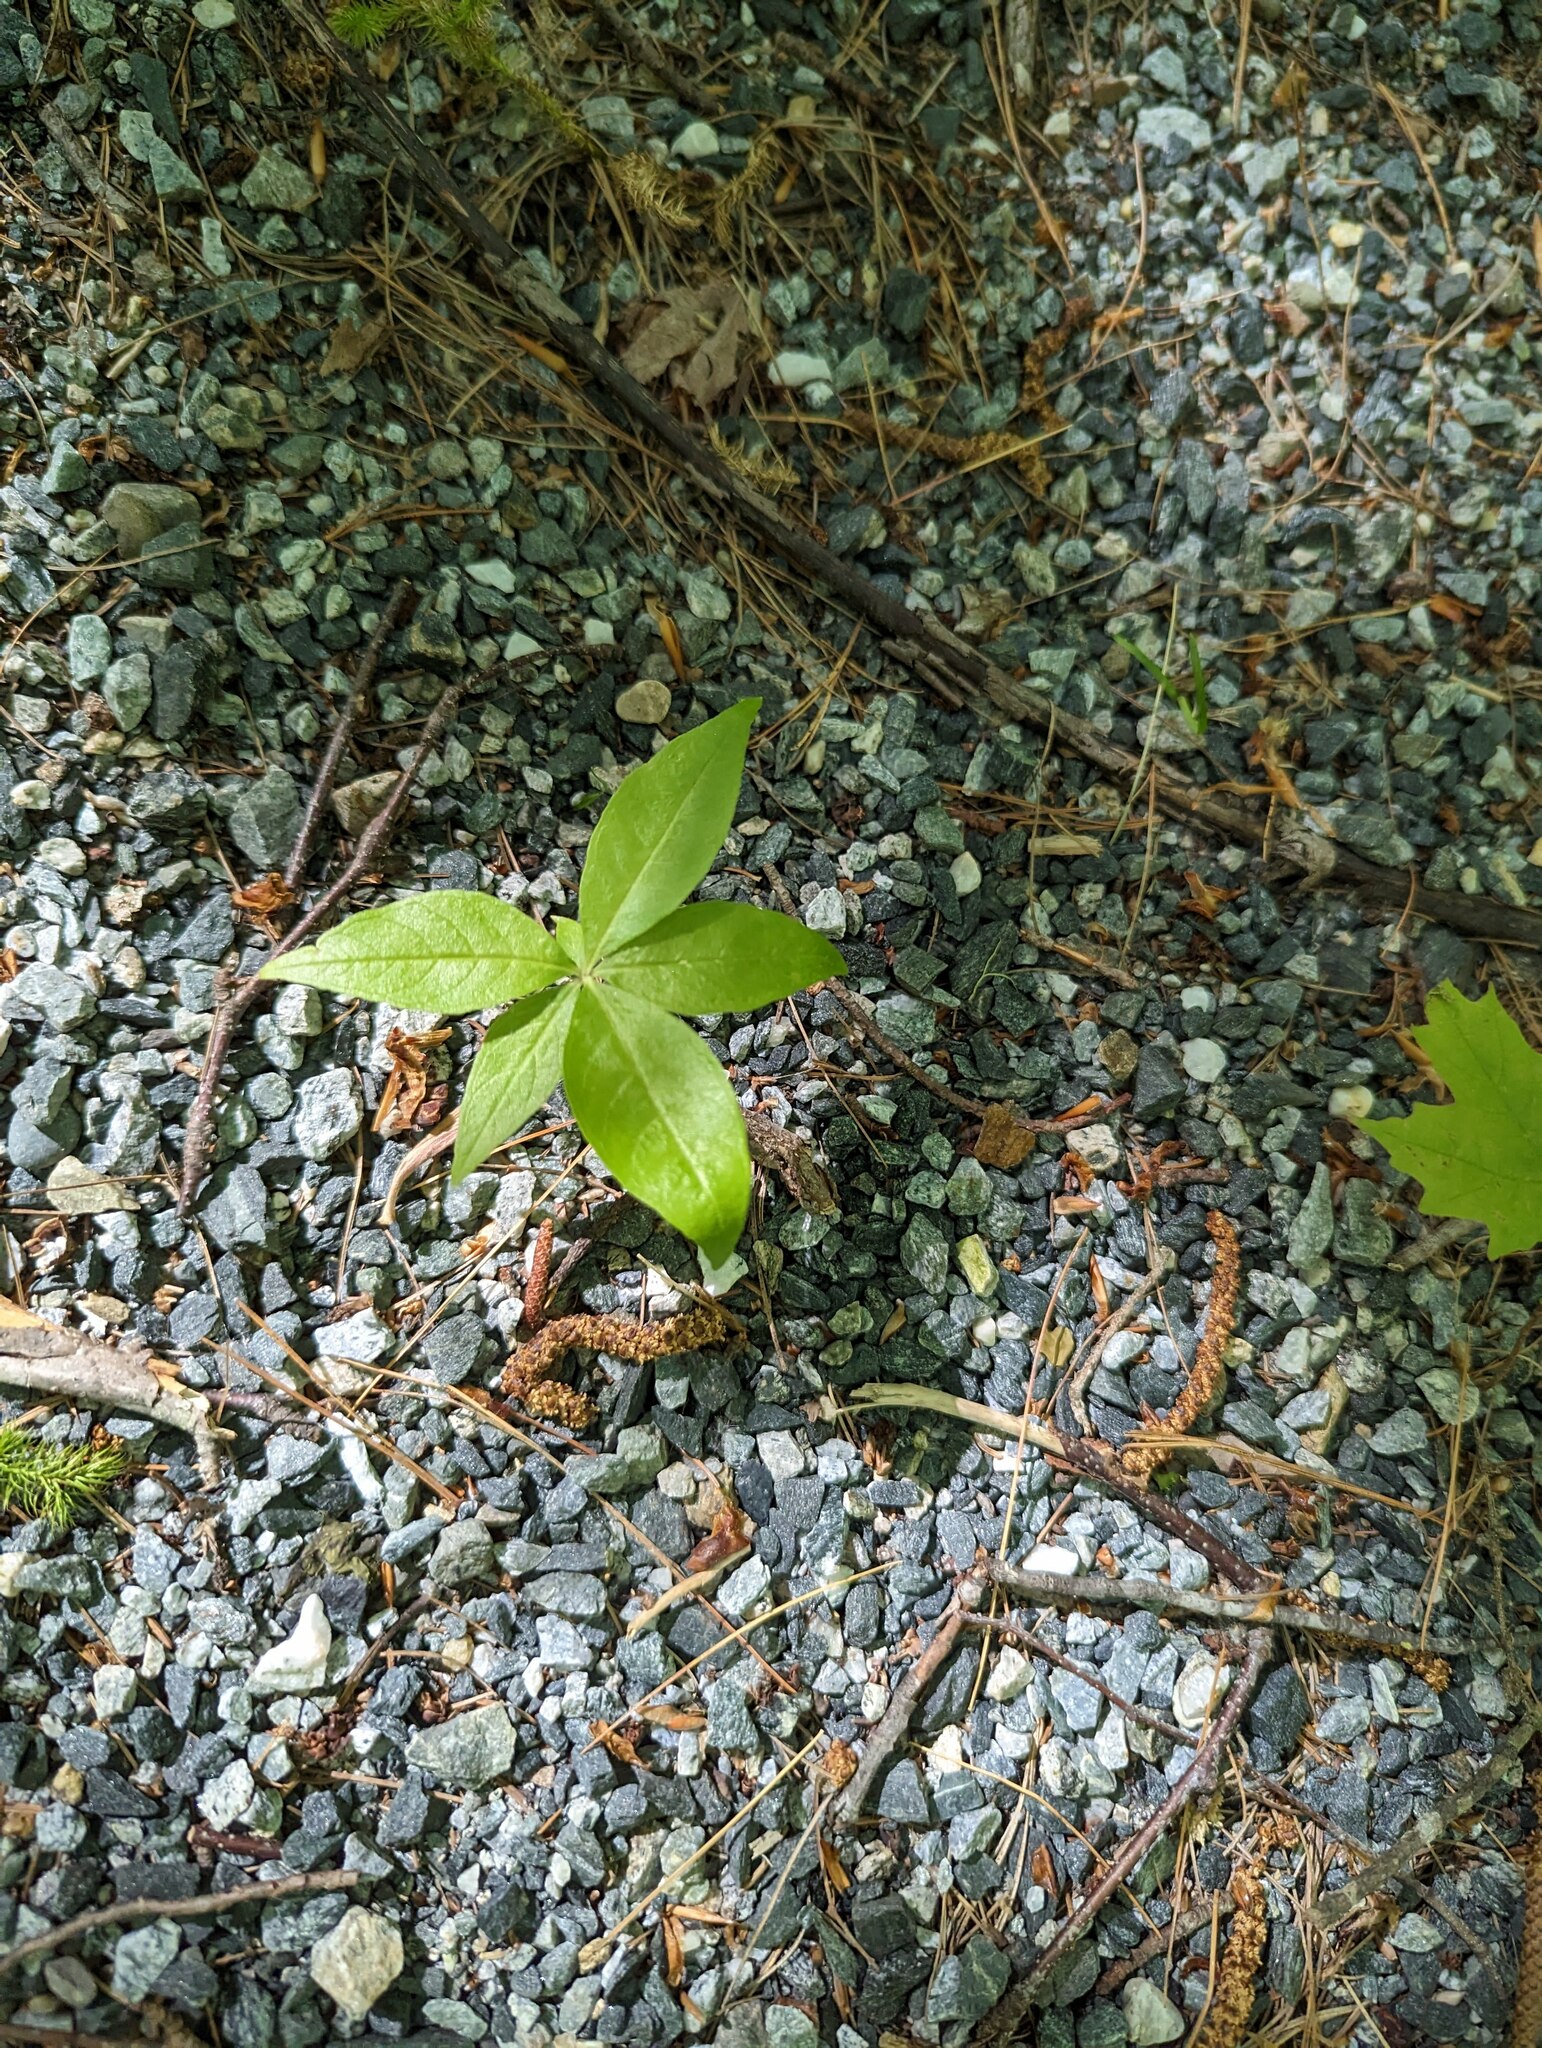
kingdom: Plantae
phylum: Tracheophyta
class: Magnoliopsida
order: Ericales
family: Primulaceae
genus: Lysimachia
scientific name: Lysimachia borealis
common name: American starflower
